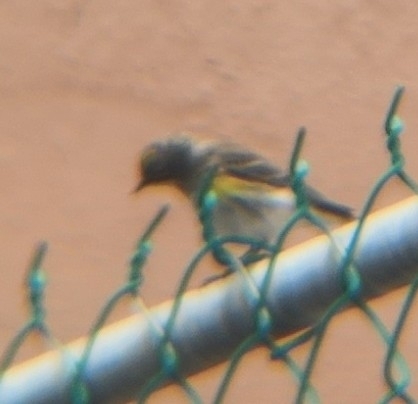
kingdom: Animalia
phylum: Chordata
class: Aves
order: Passeriformes
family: Parulidae
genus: Setophaga
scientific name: Setophaga coronata
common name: Myrtle warbler
